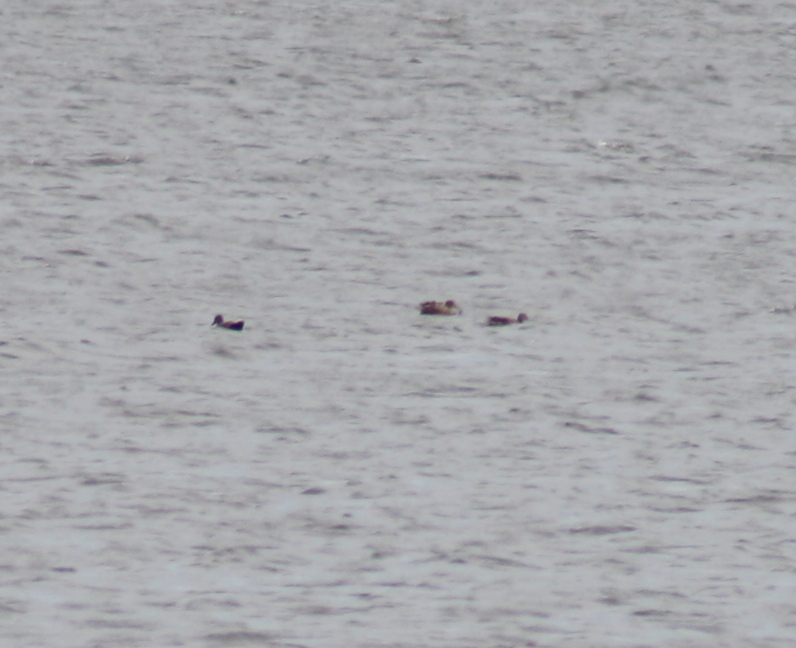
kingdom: Animalia
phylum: Chordata
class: Aves
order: Anseriformes
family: Anatidae
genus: Spatula
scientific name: Spatula clypeata
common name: Northern shoveler
